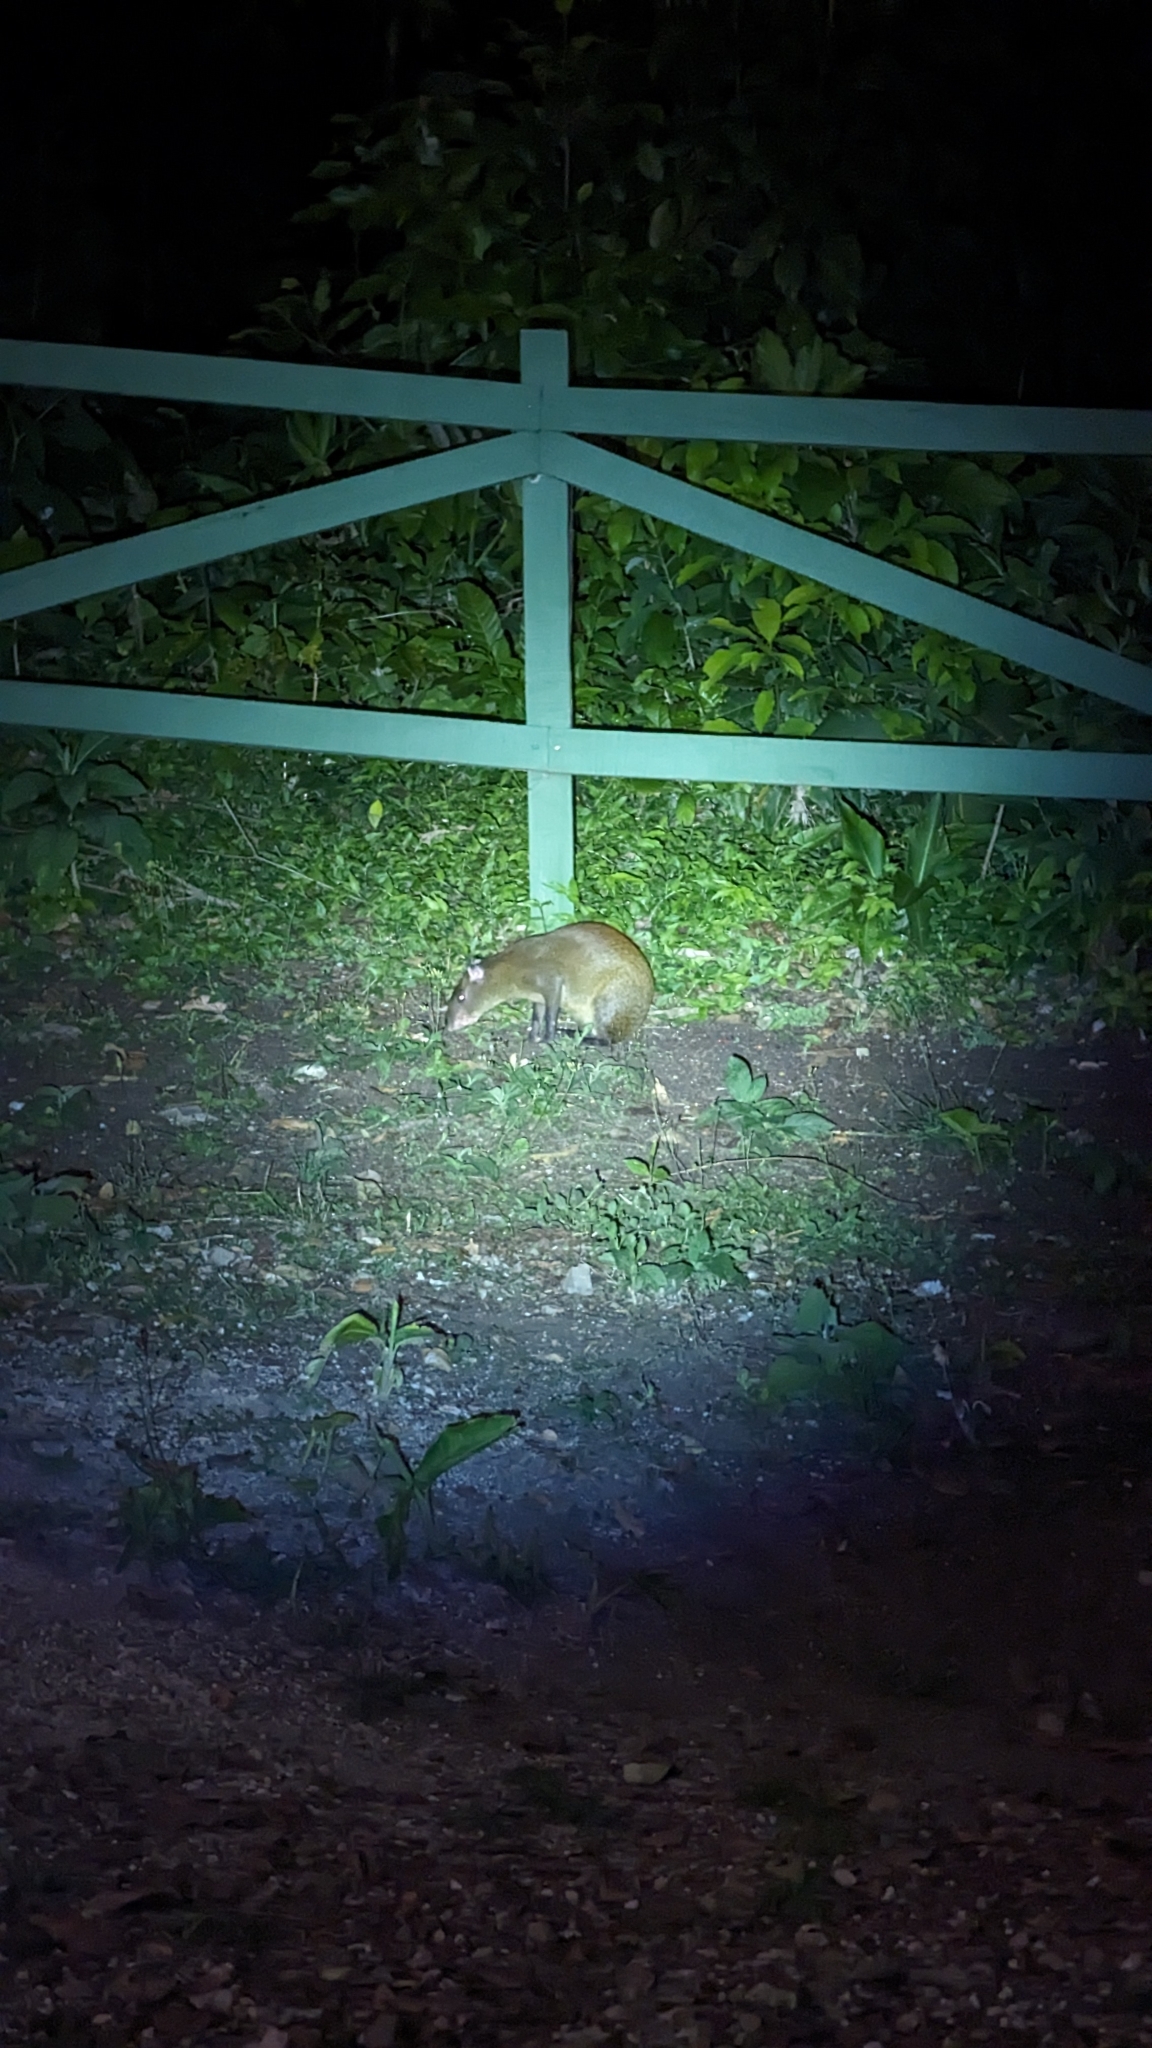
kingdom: Animalia
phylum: Chordata
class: Mammalia
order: Rodentia
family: Dasyproctidae
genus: Dasyprocta
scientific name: Dasyprocta punctata
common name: Central american agouti
